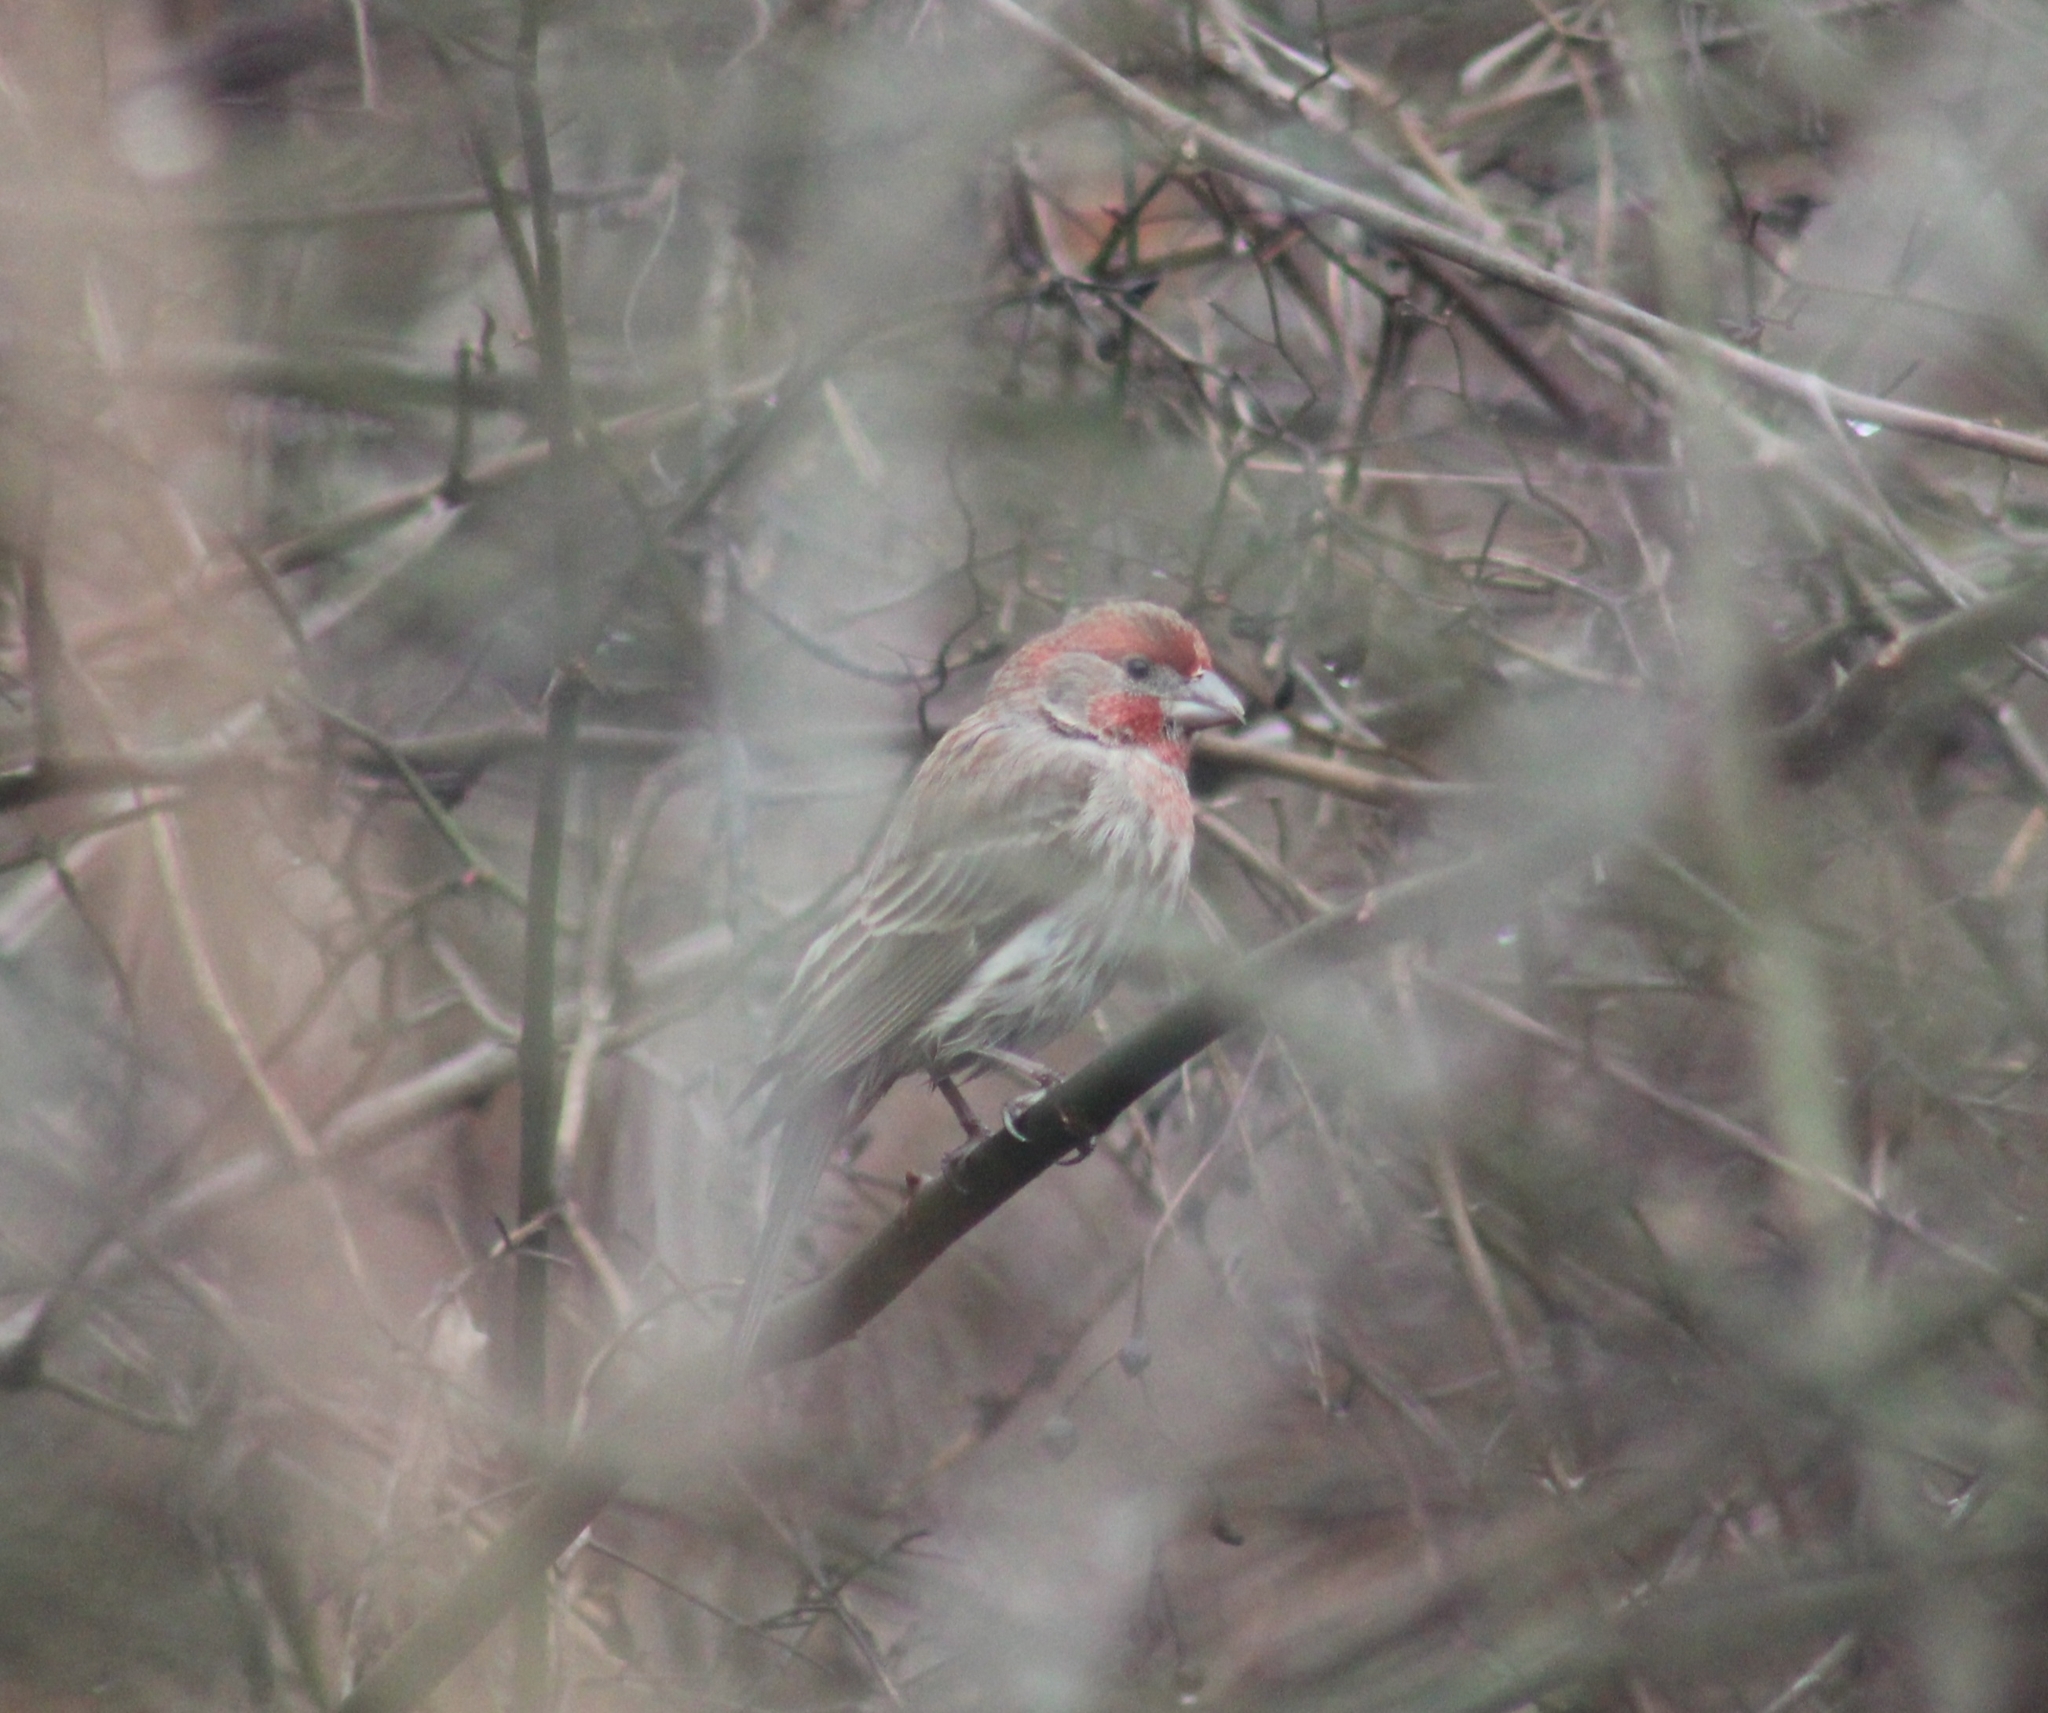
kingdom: Animalia
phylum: Chordata
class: Aves
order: Passeriformes
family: Fringillidae
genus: Haemorhous
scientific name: Haemorhous mexicanus
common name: House finch
